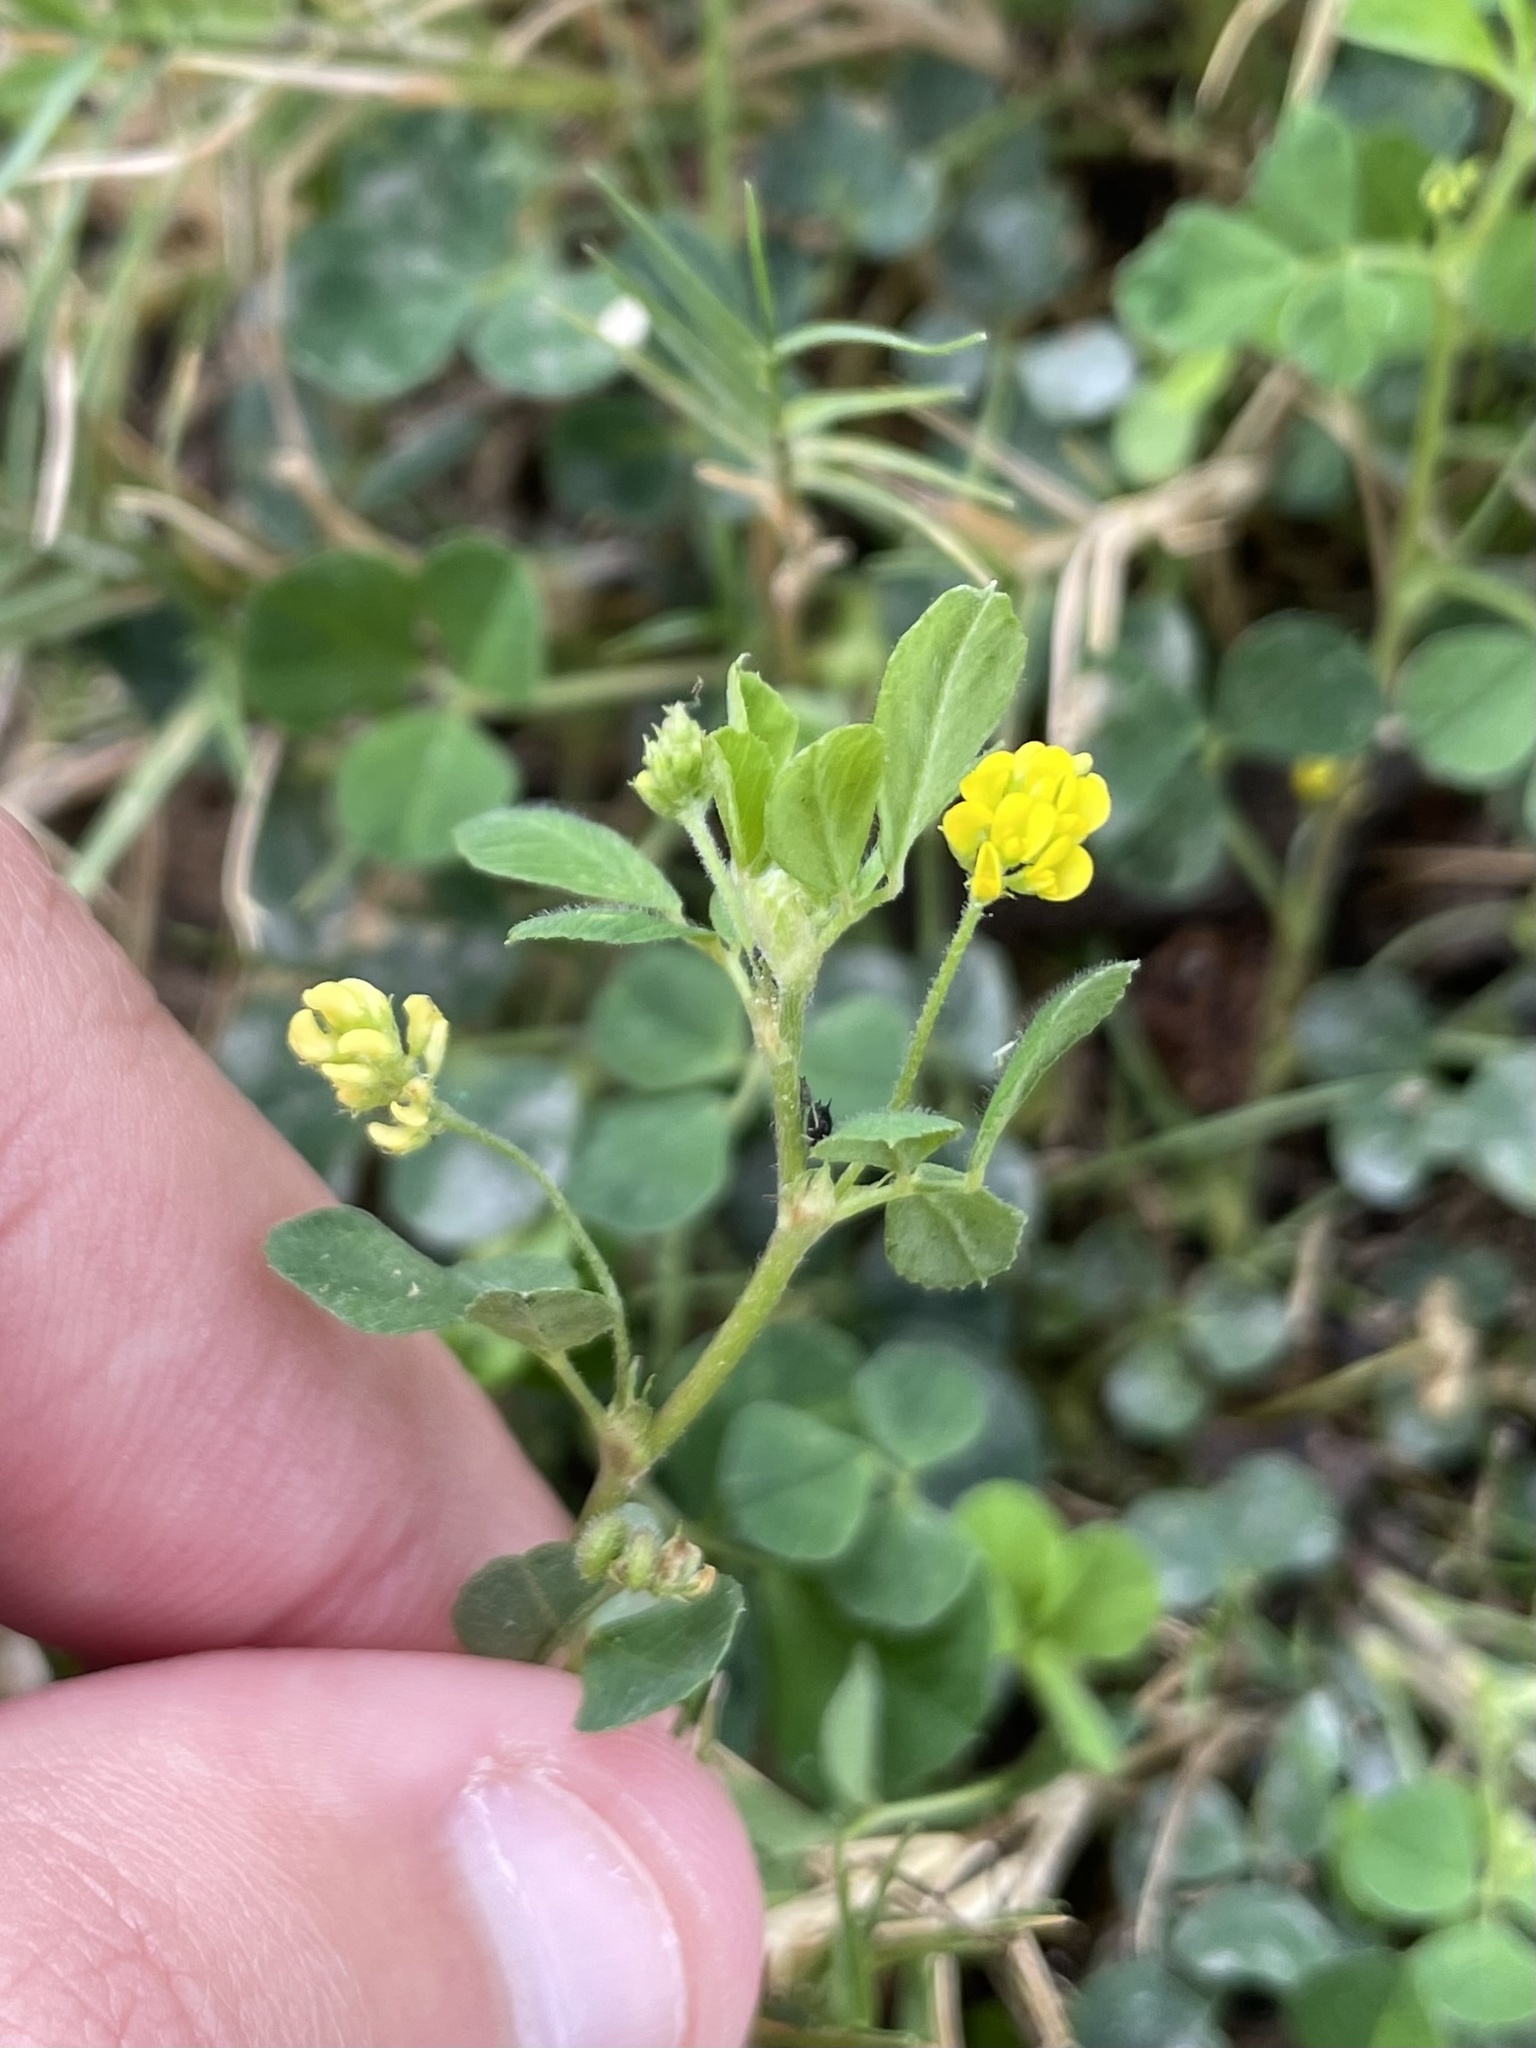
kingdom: Plantae
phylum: Tracheophyta
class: Magnoliopsida
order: Fabales
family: Fabaceae
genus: Medicago
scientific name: Medicago lupulina
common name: Black medick
